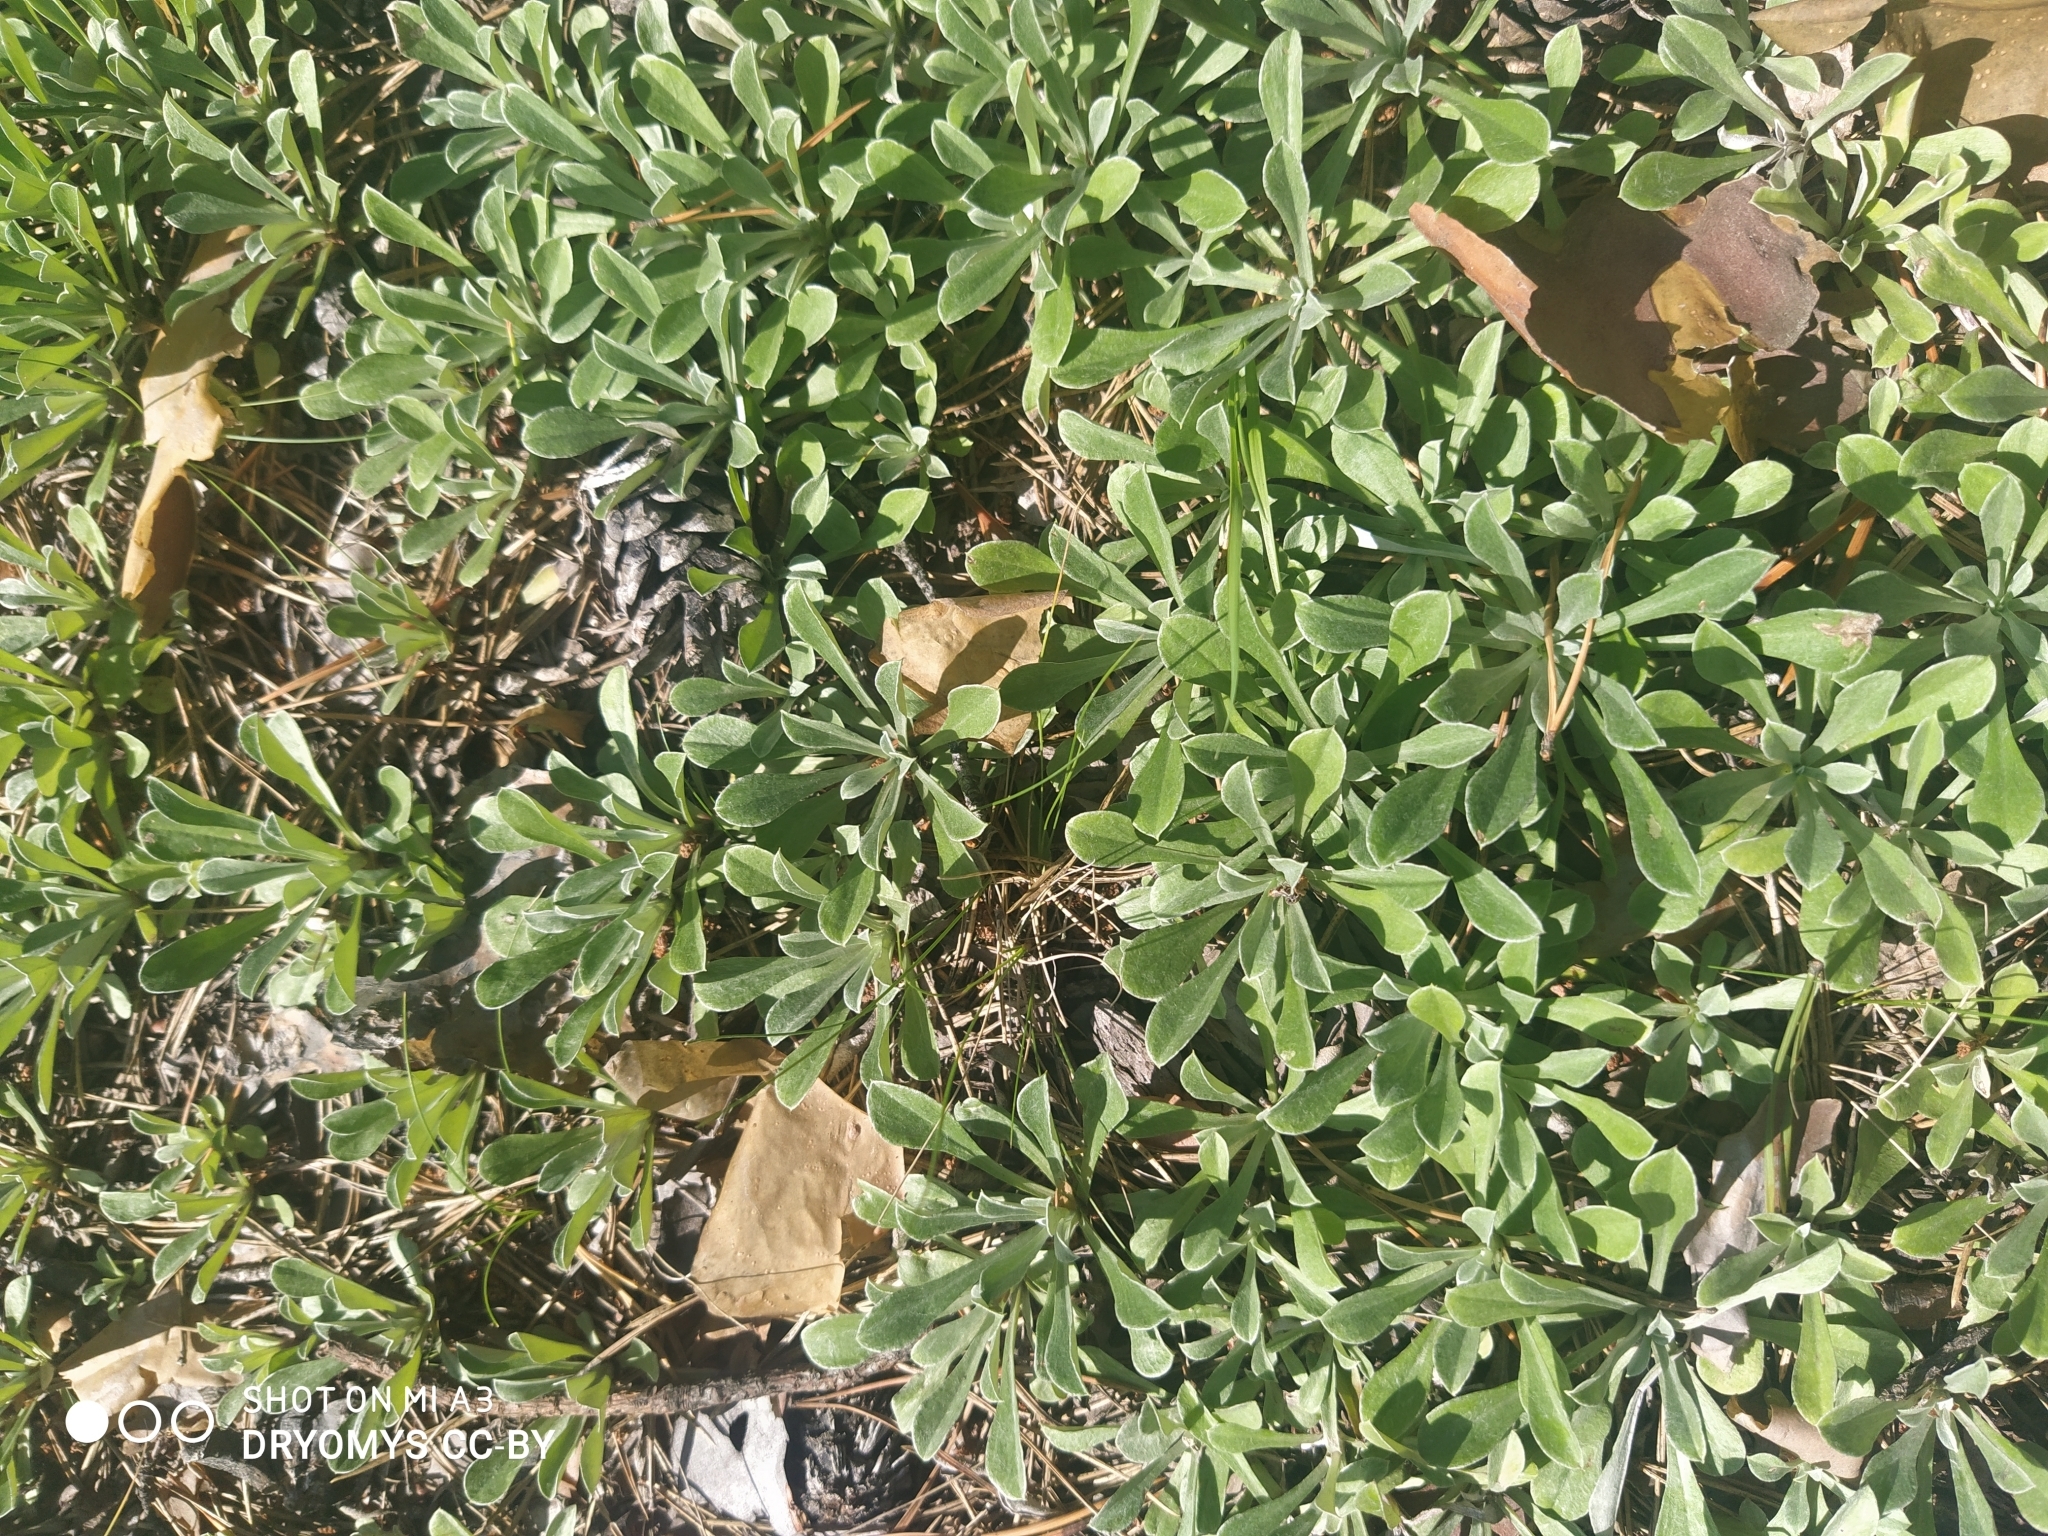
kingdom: Plantae
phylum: Tracheophyta
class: Magnoliopsida
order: Asterales
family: Asteraceae
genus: Antennaria
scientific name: Antennaria dioica
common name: Mountain everlasting
